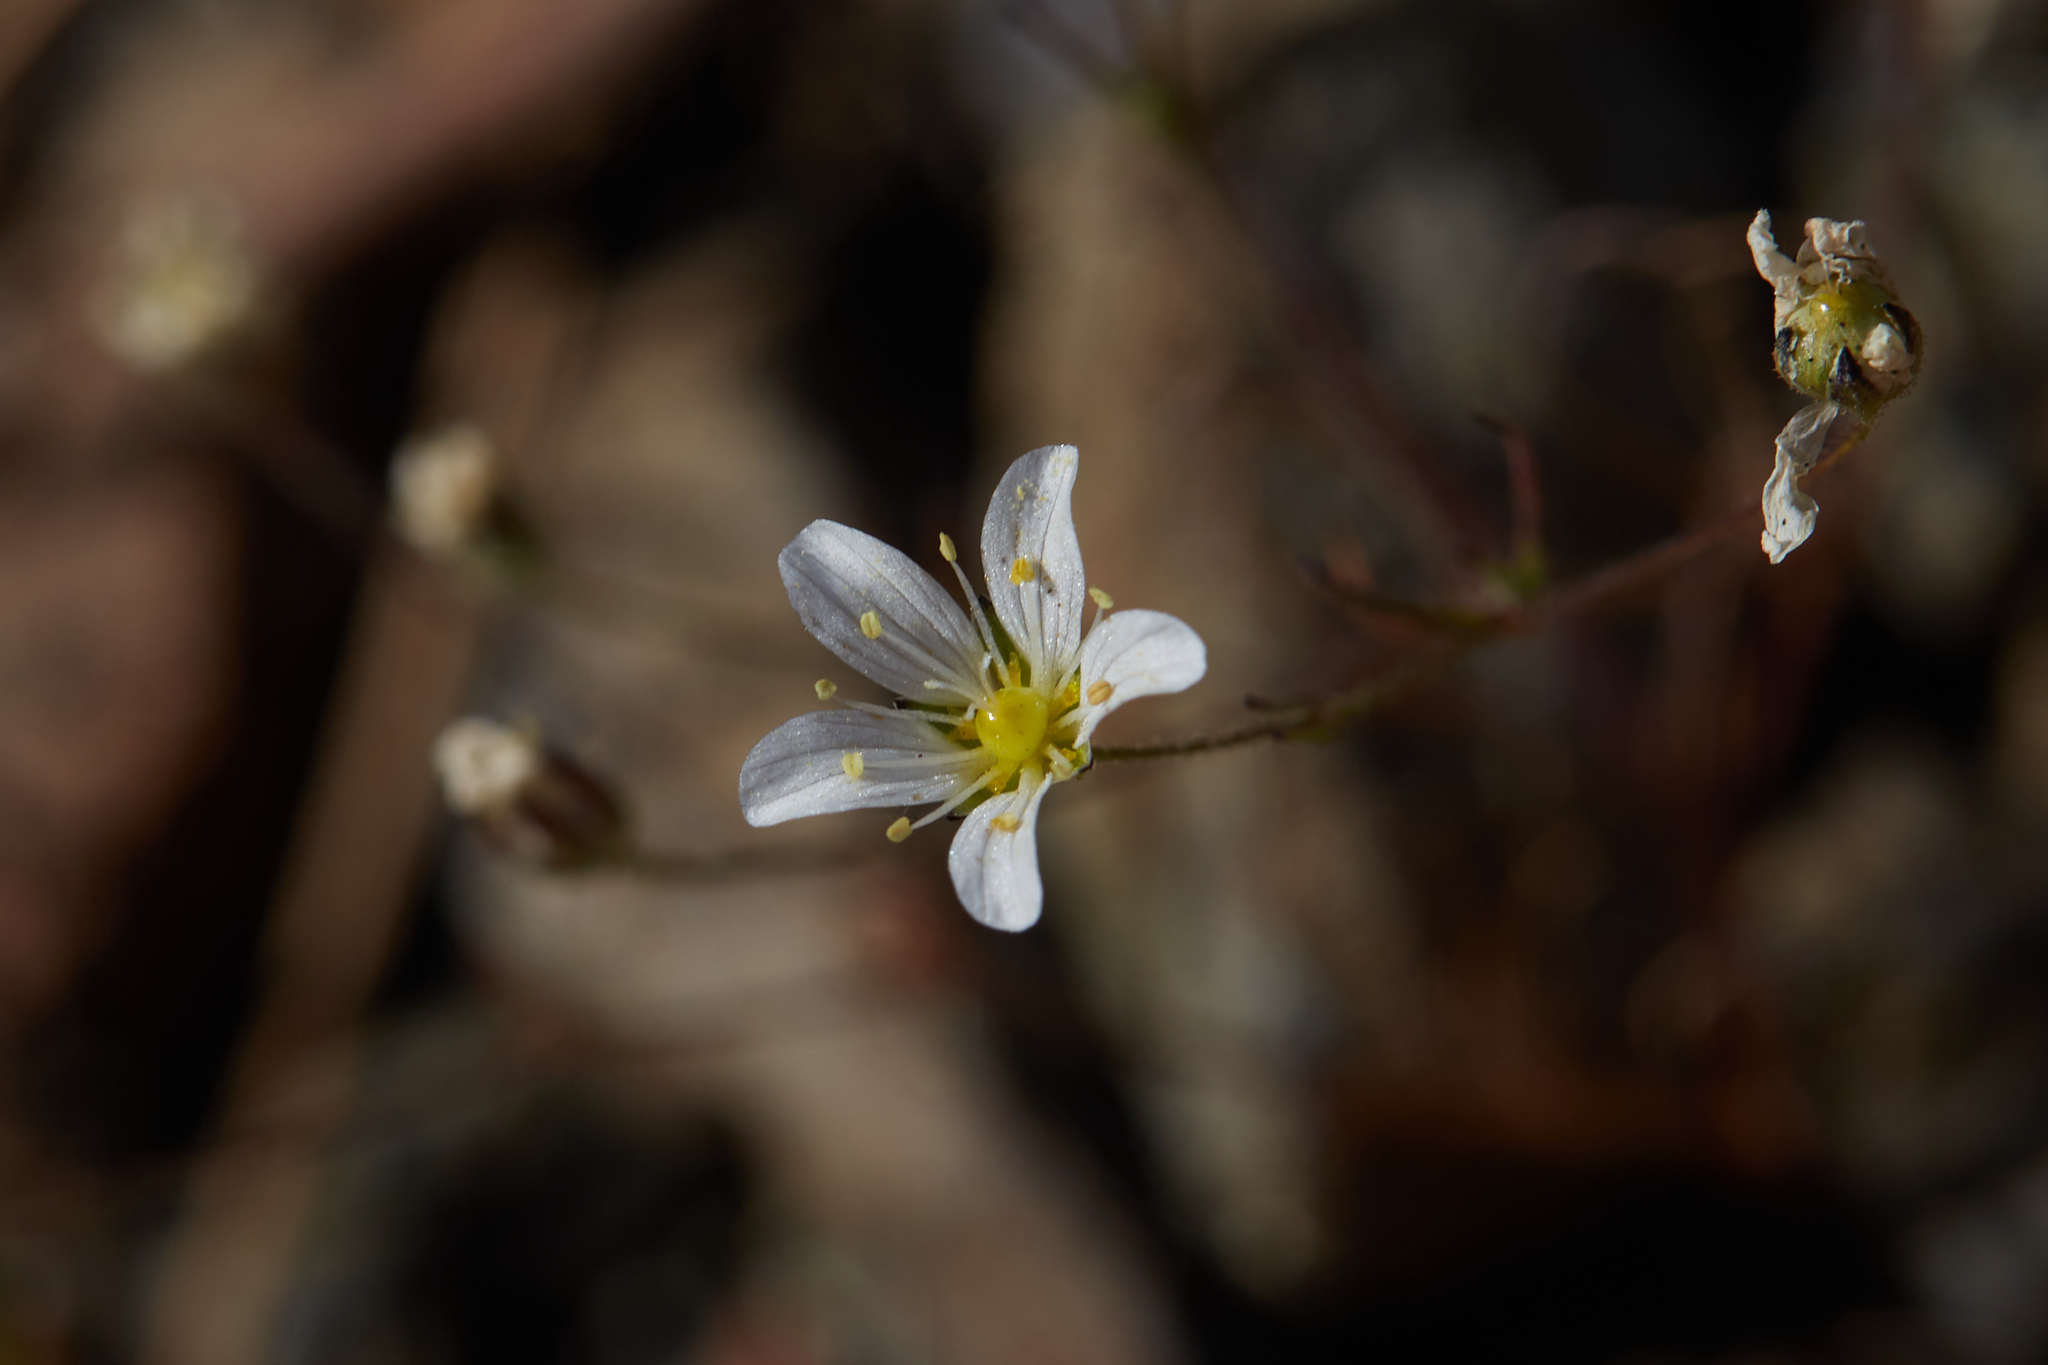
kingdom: Plantae
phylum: Tracheophyta
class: Magnoliopsida
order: Caryophyllales
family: Caryophyllaceae
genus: Sabulina
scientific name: Sabulina douglasii
